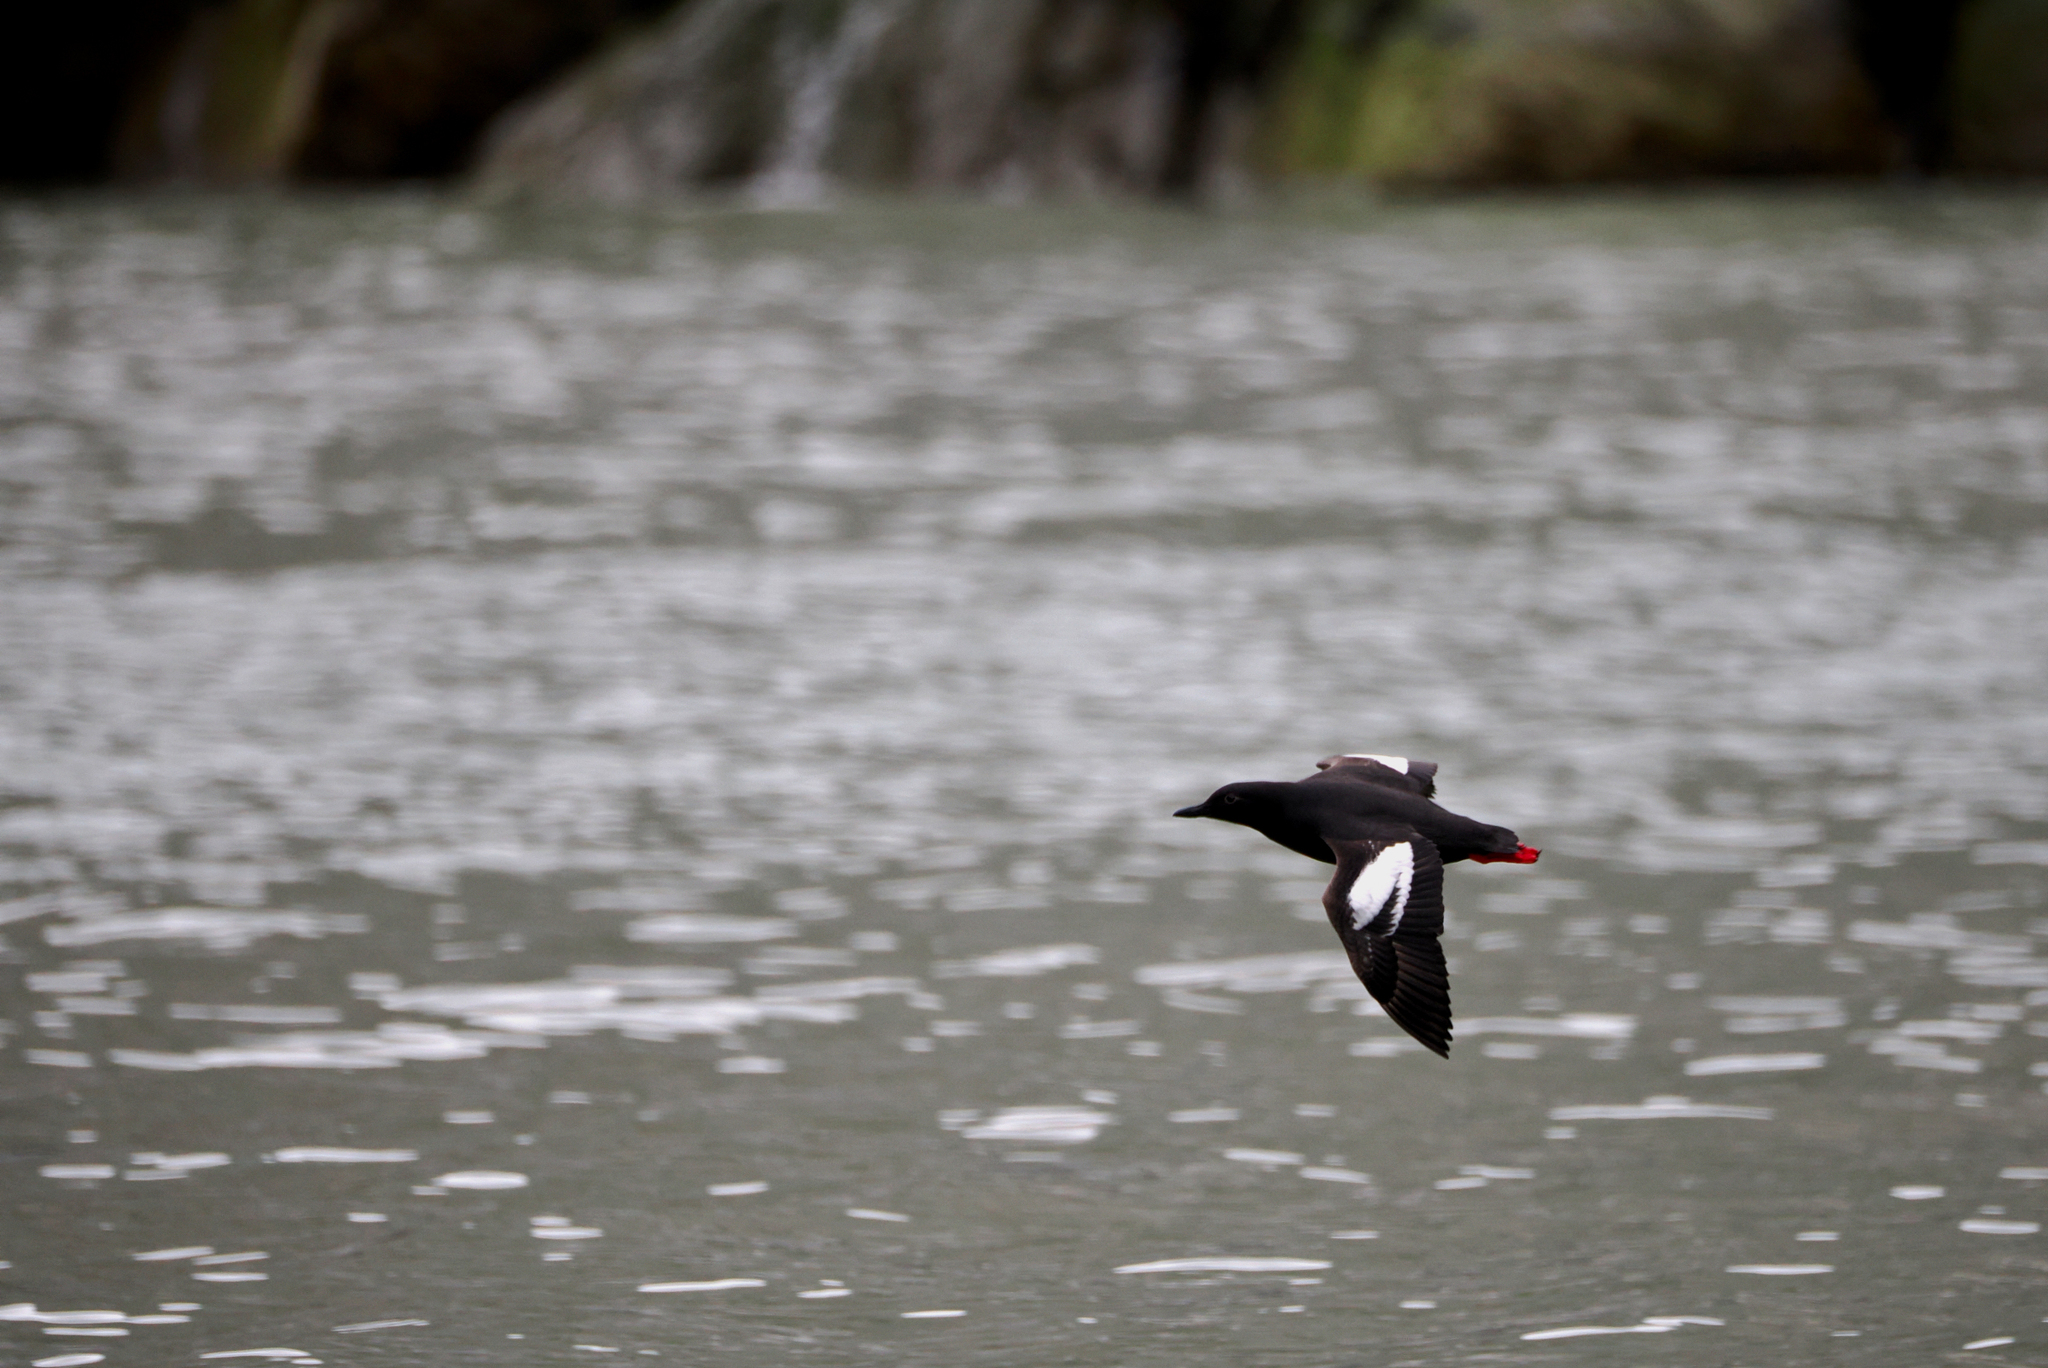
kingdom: Animalia
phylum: Chordata
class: Aves
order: Charadriiformes
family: Alcidae
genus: Cepphus
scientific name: Cepphus columba
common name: Pigeon guillemot
